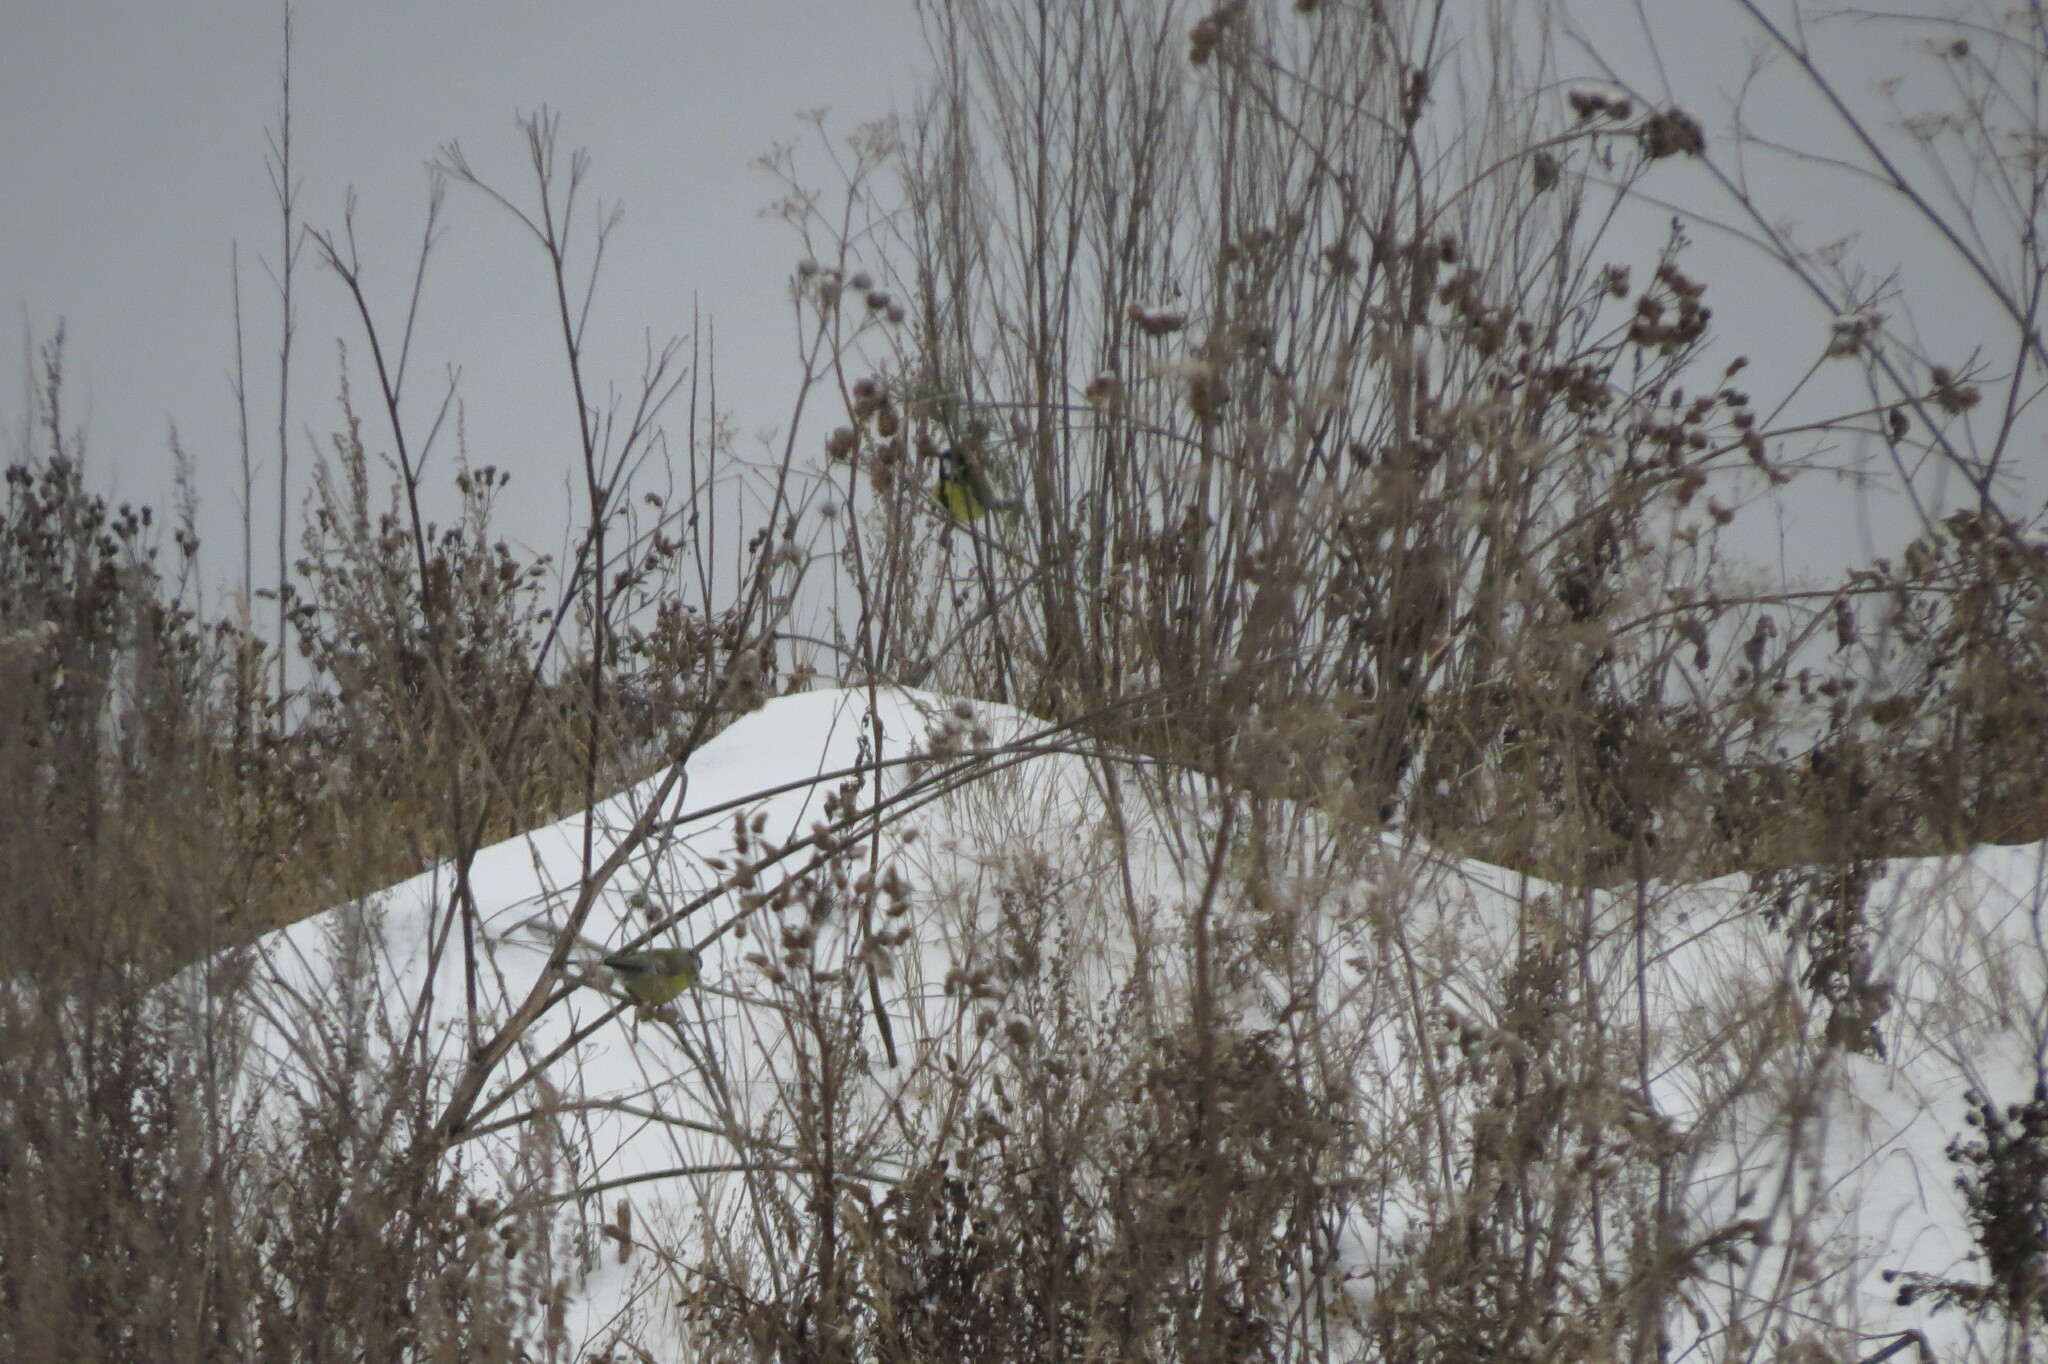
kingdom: Animalia
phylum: Chordata
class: Aves
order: Passeriformes
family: Paridae
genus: Parus
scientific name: Parus major
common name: Great tit
